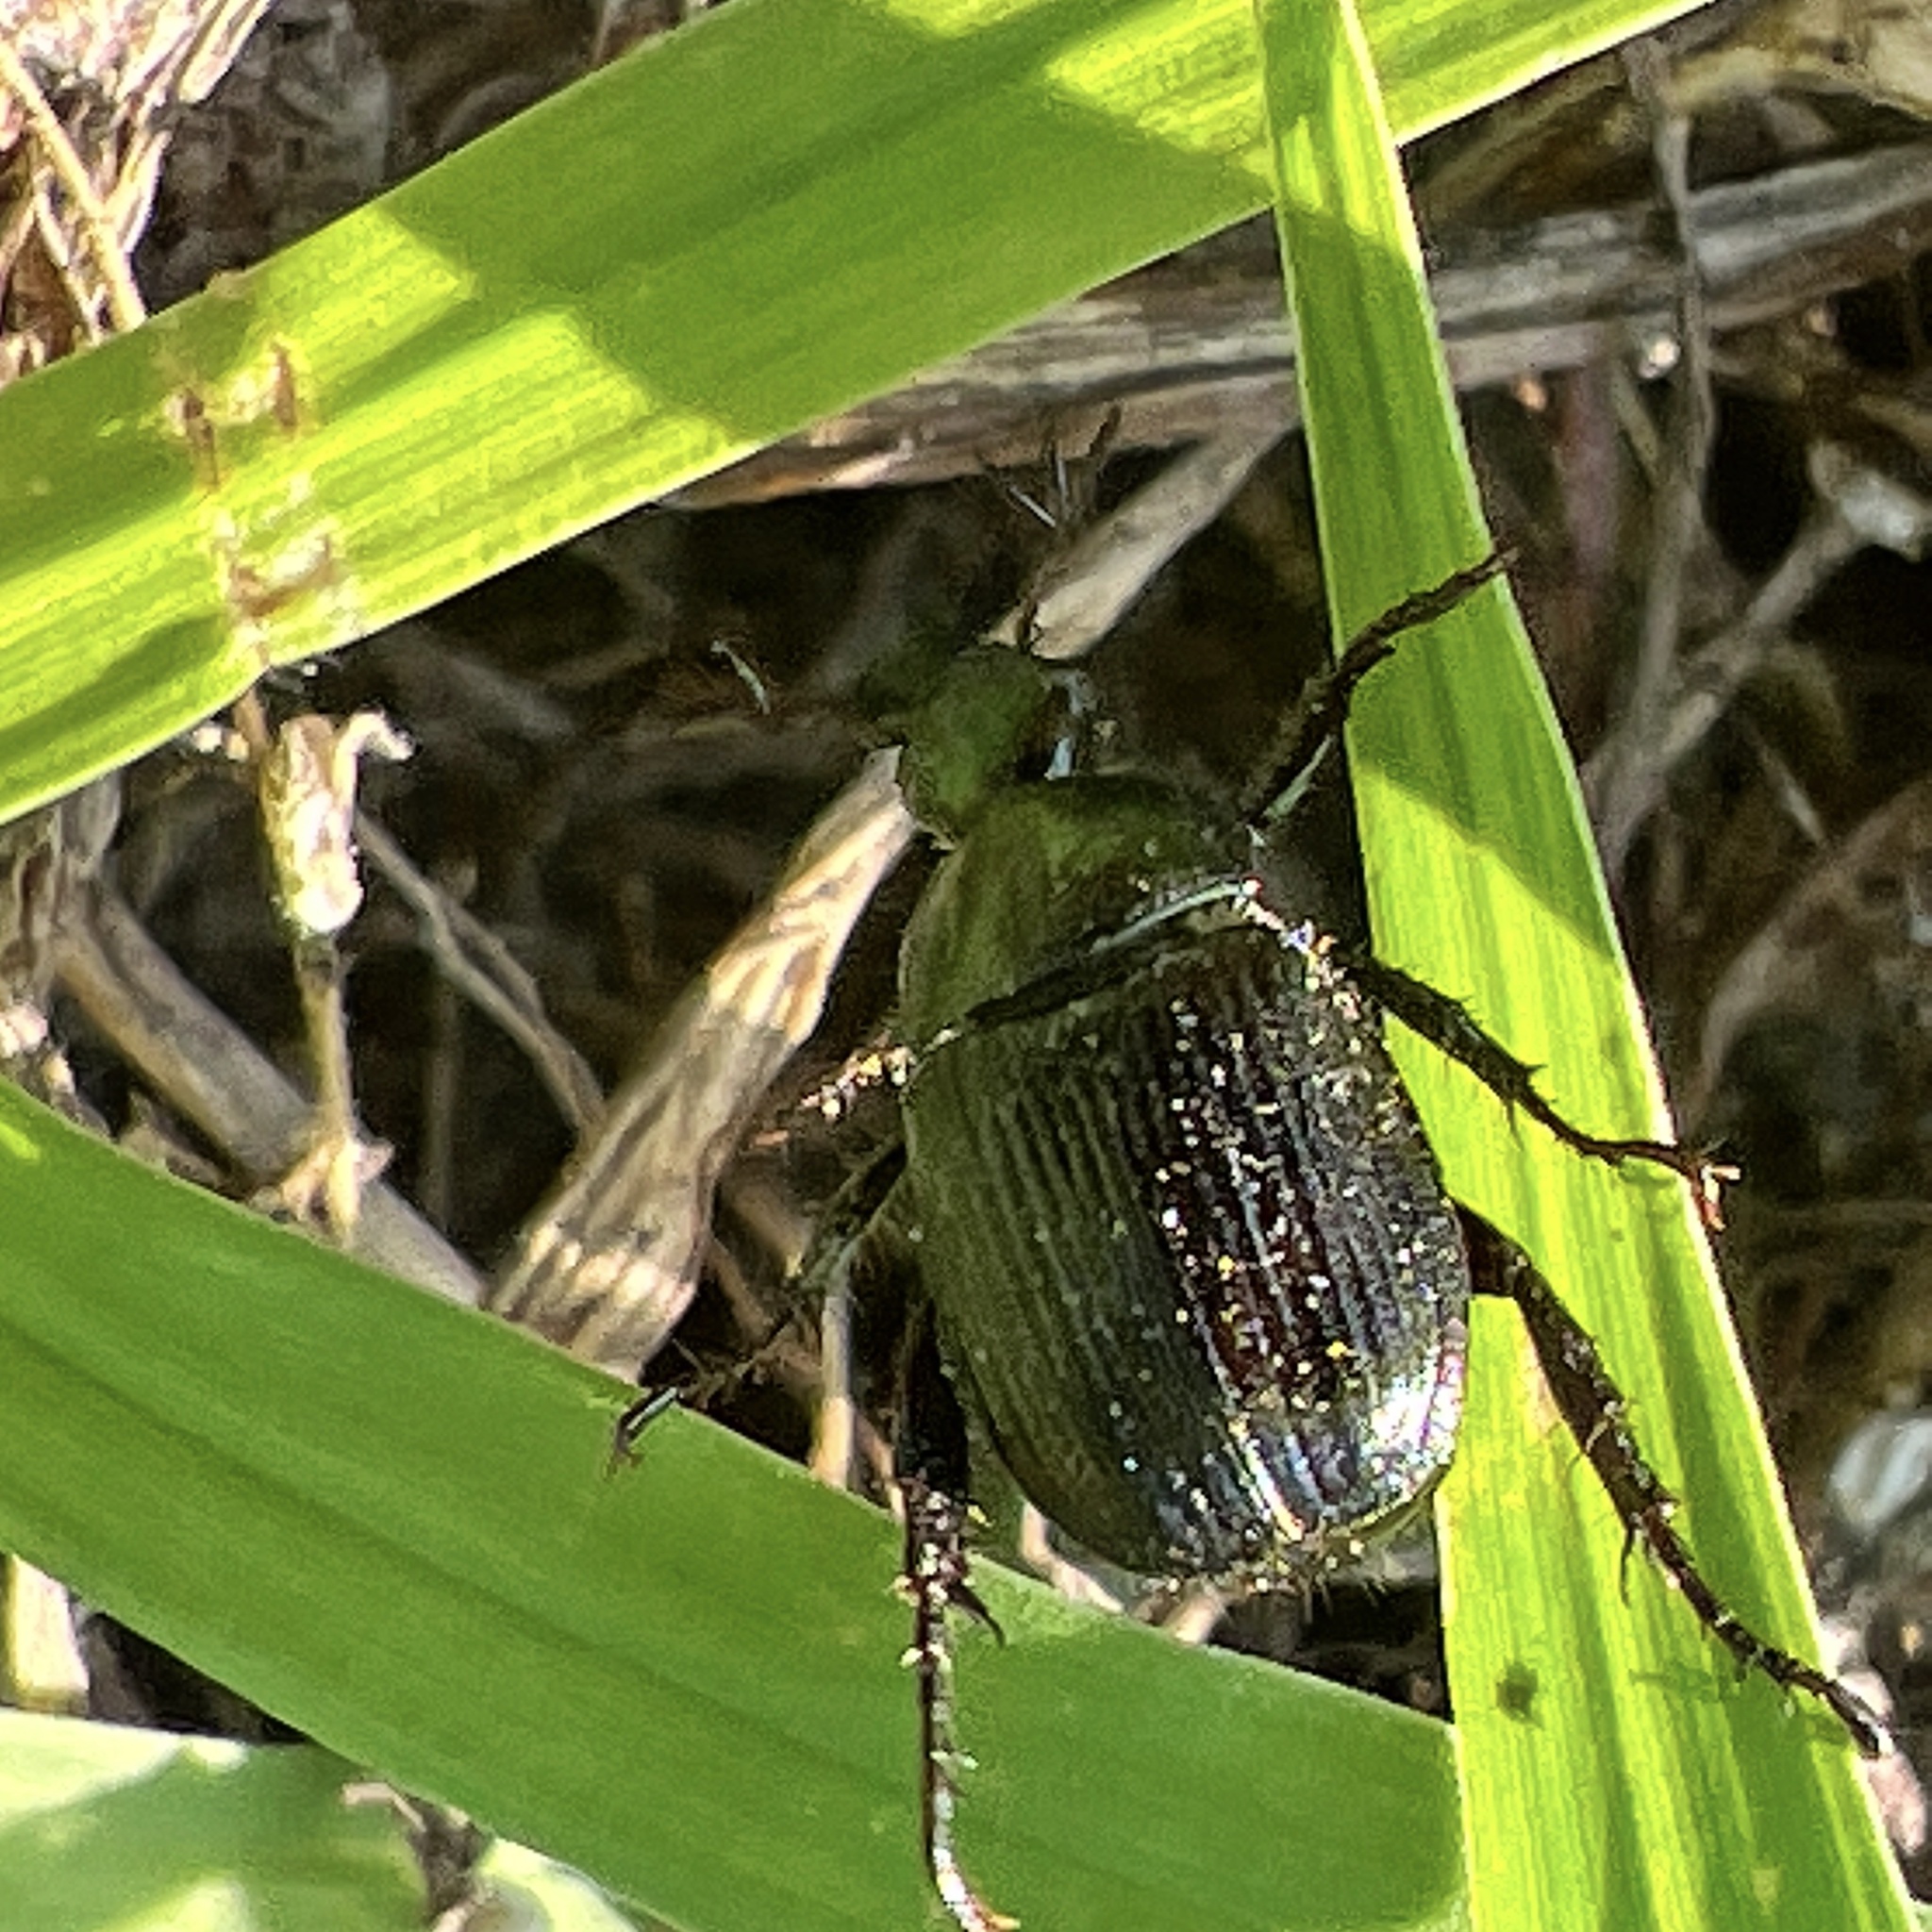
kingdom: Animalia
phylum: Arthropoda
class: Insecta
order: Coleoptera
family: Scarabaeidae
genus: Exomala
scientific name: Exomala orientalis
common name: Oriental beetle
